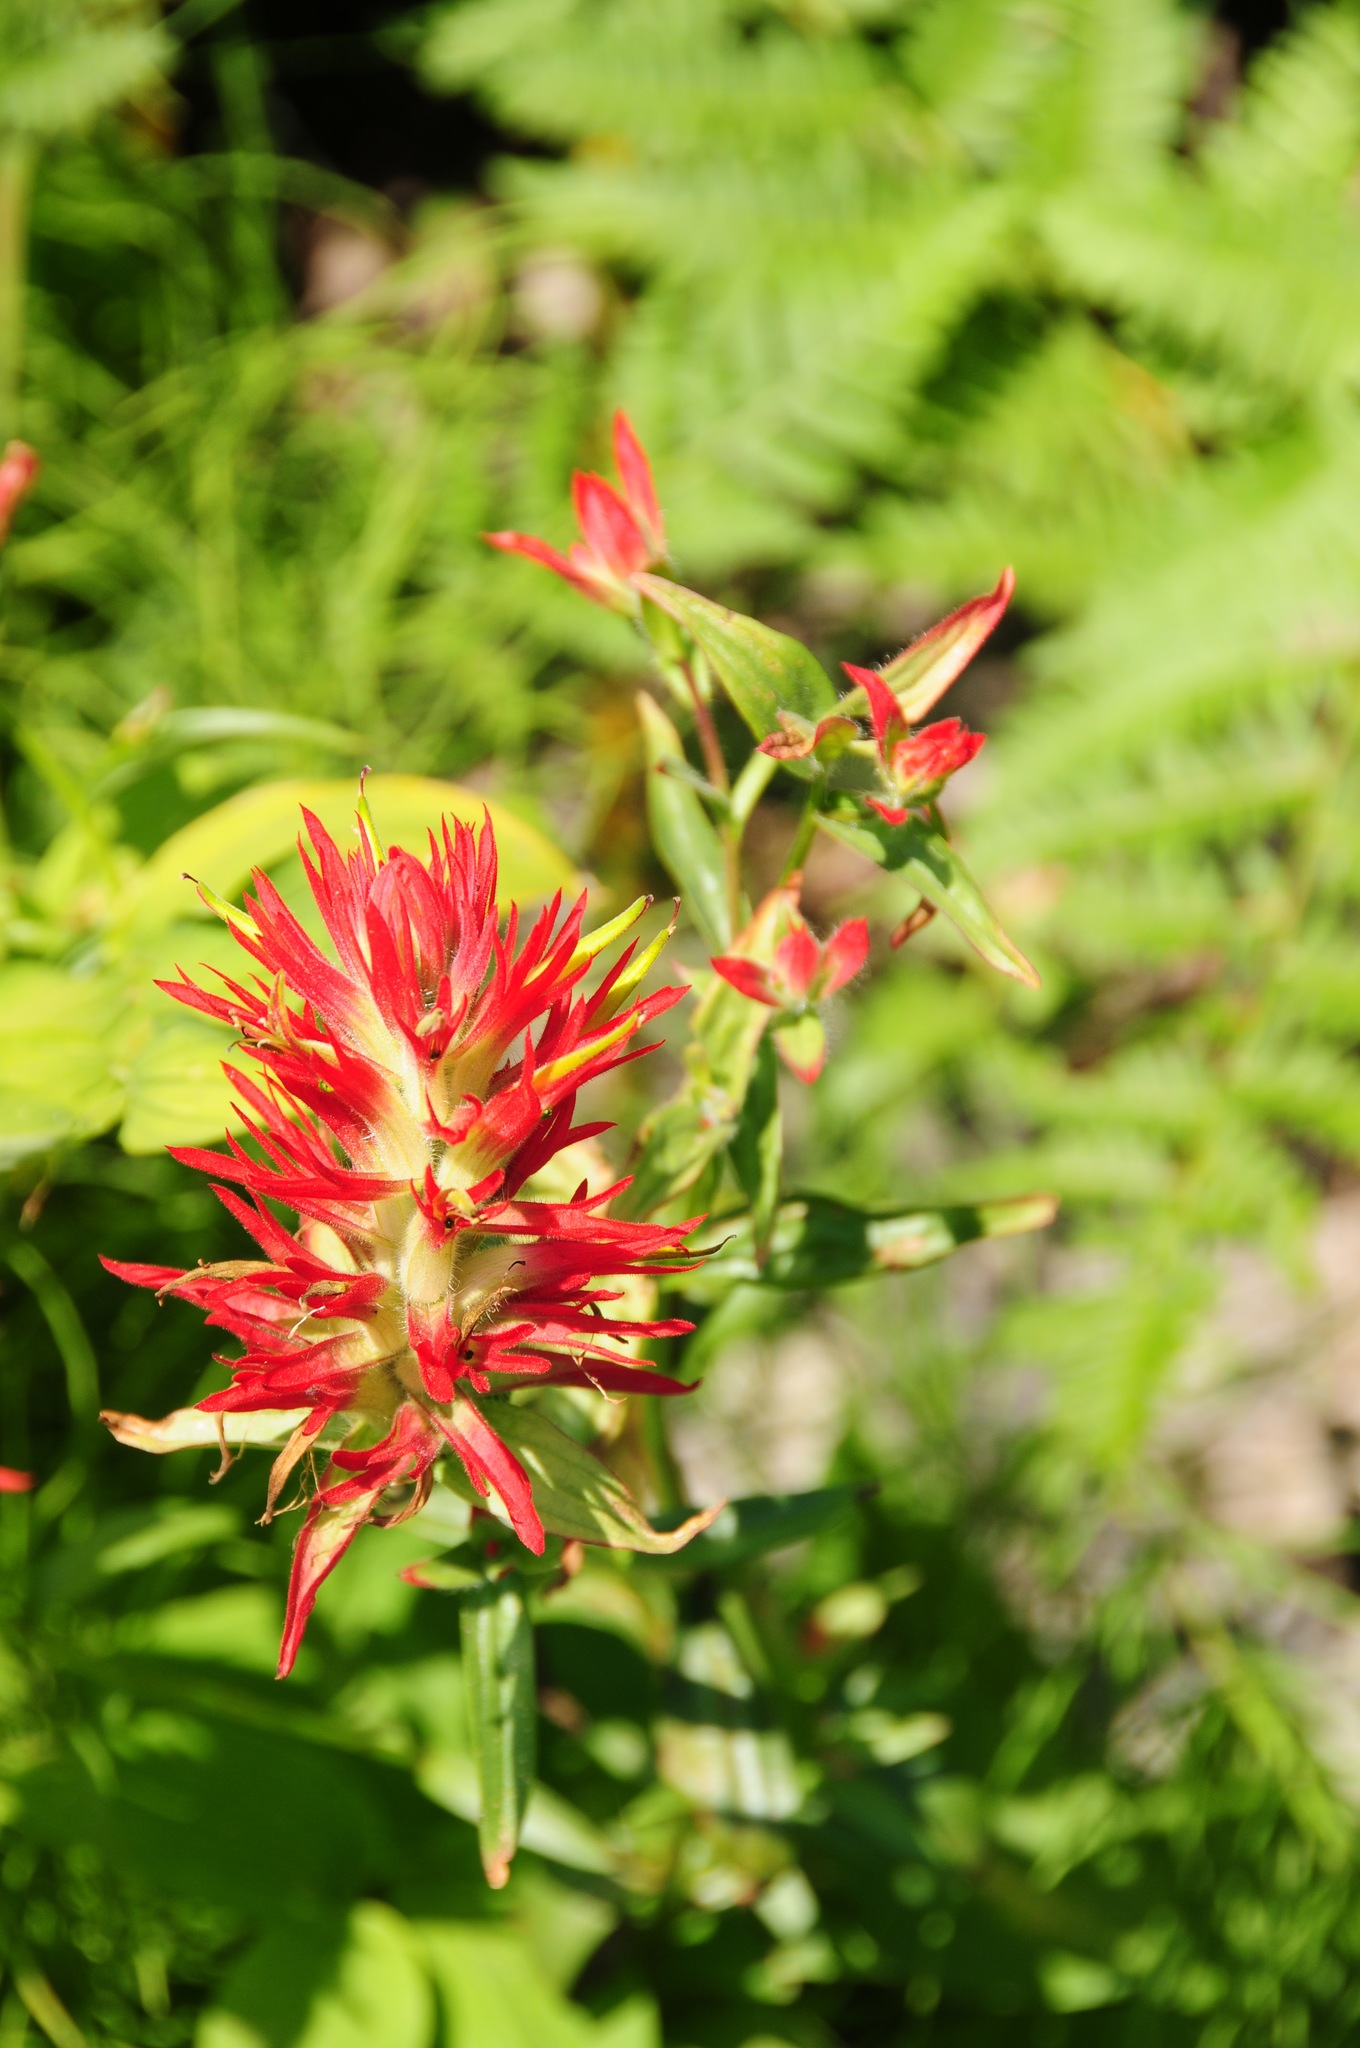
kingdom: Plantae
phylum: Tracheophyta
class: Magnoliopsida
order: Lamiales
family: Orobanchaceae
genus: Castilleja
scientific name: Castilleja miniata
